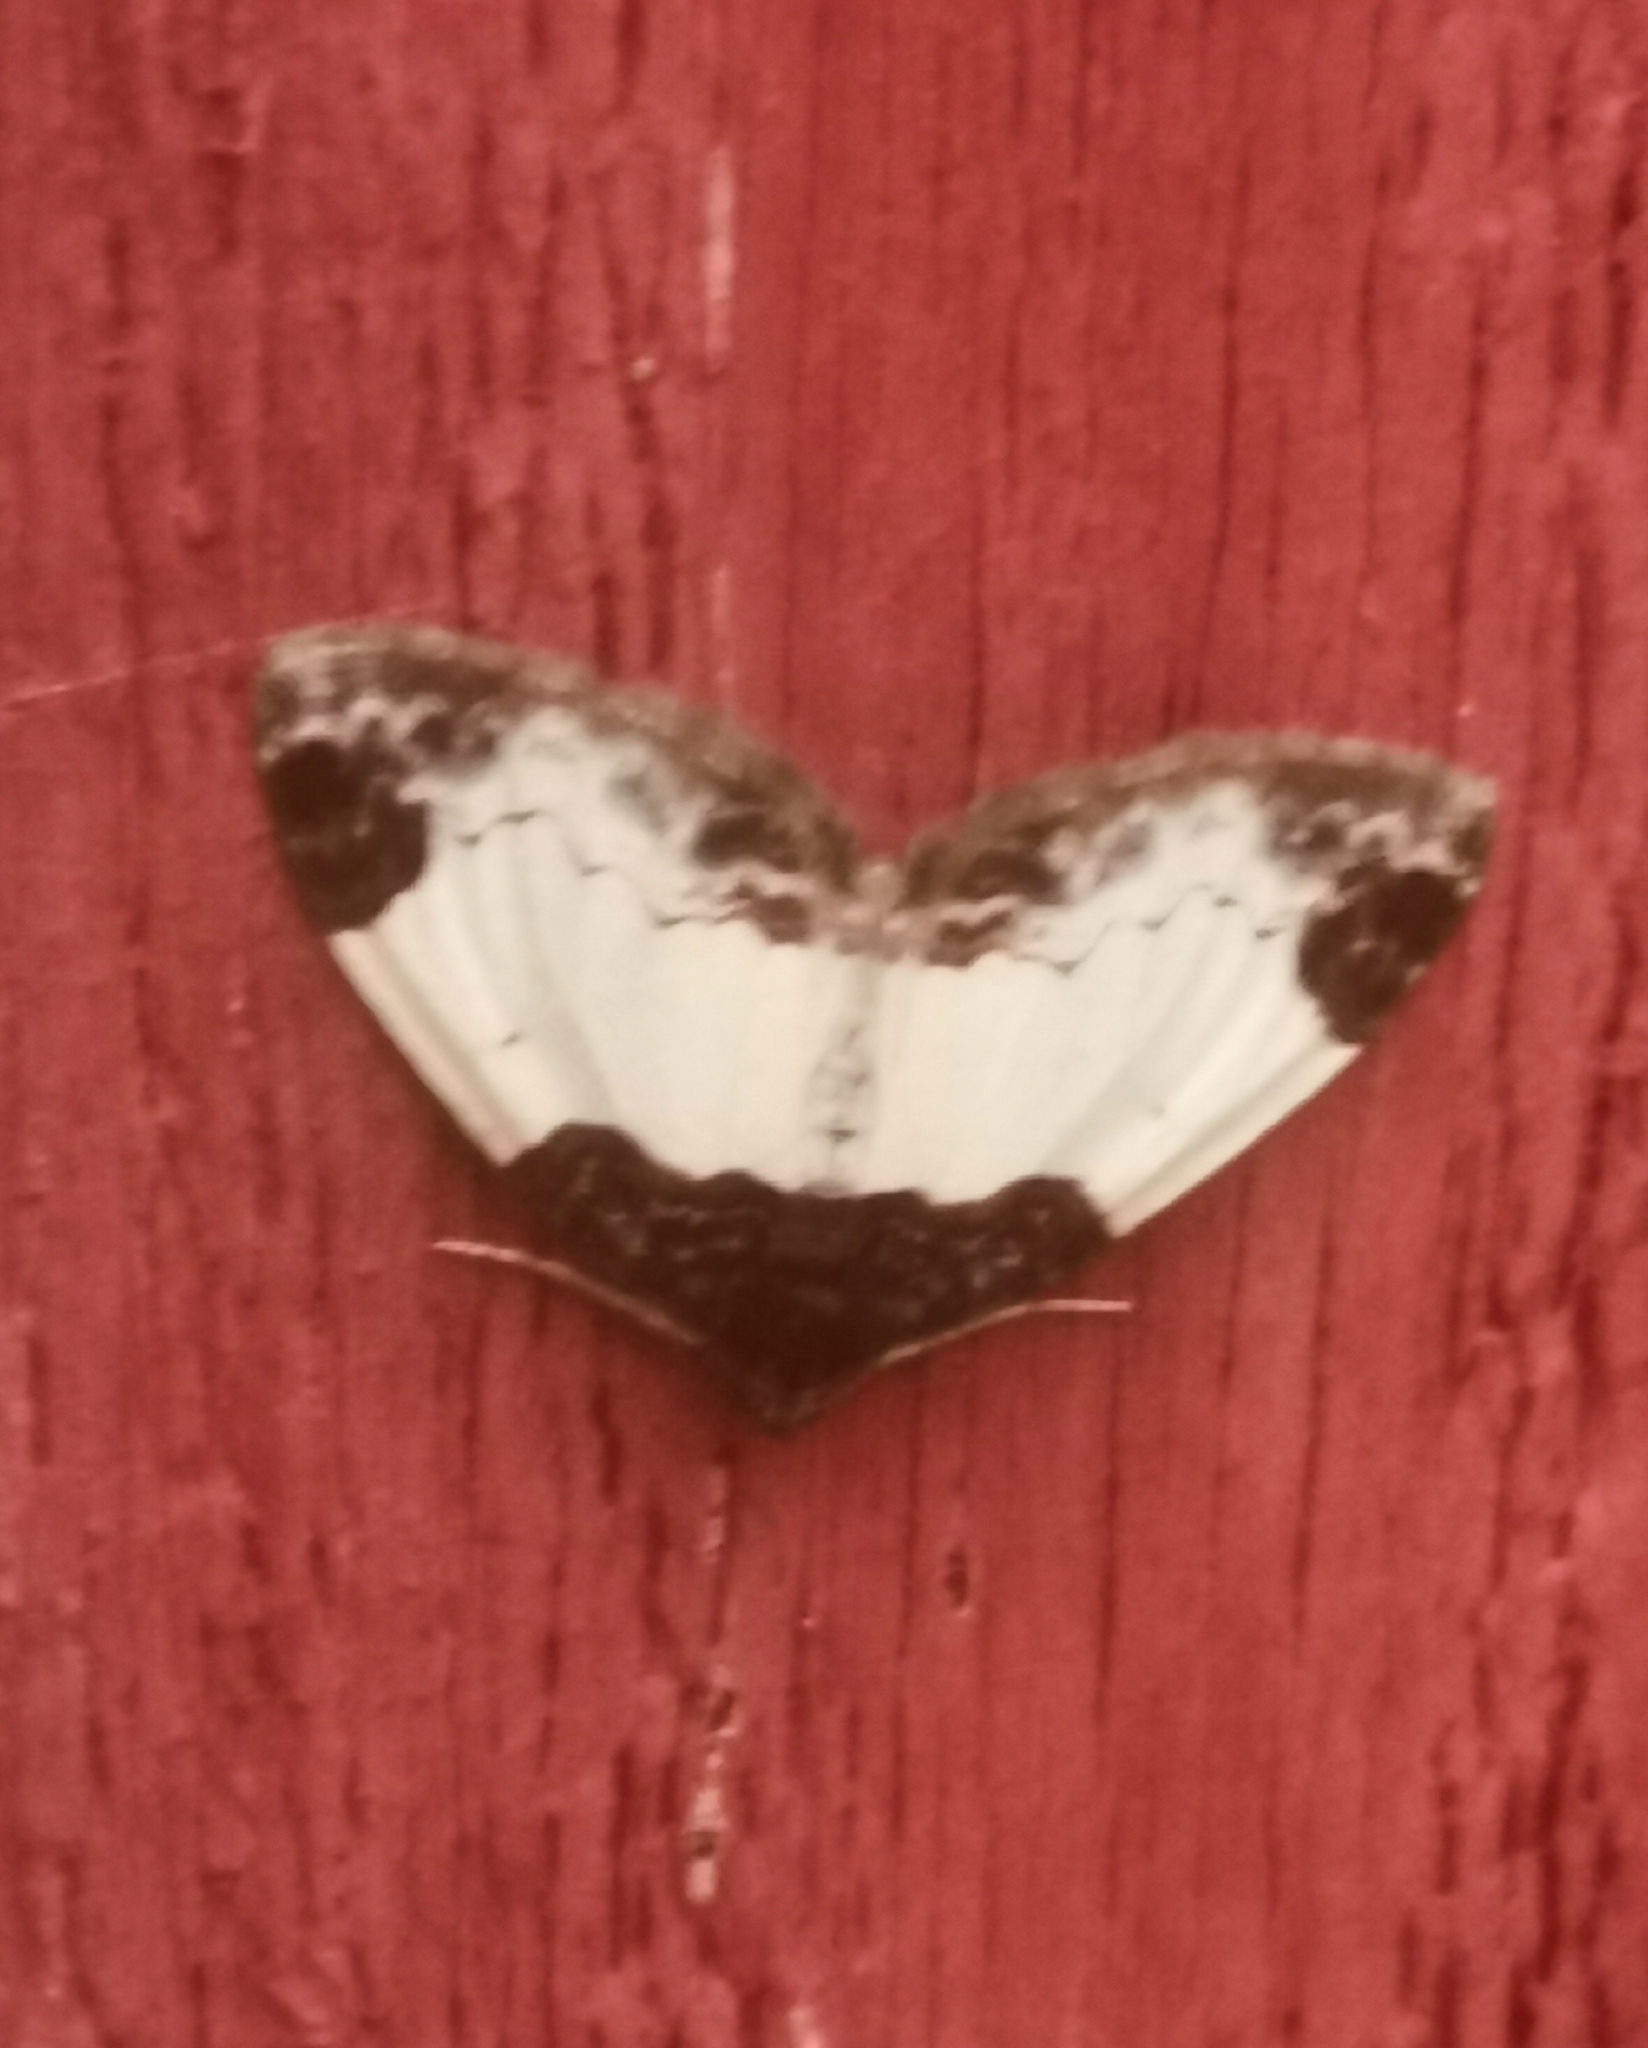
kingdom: Animalia
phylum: Arthropoda
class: Insecta
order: Lepidoptera
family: Geometridae
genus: Mesoleuca
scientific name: Mesoleuca albicillata
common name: Beautiful carpet
